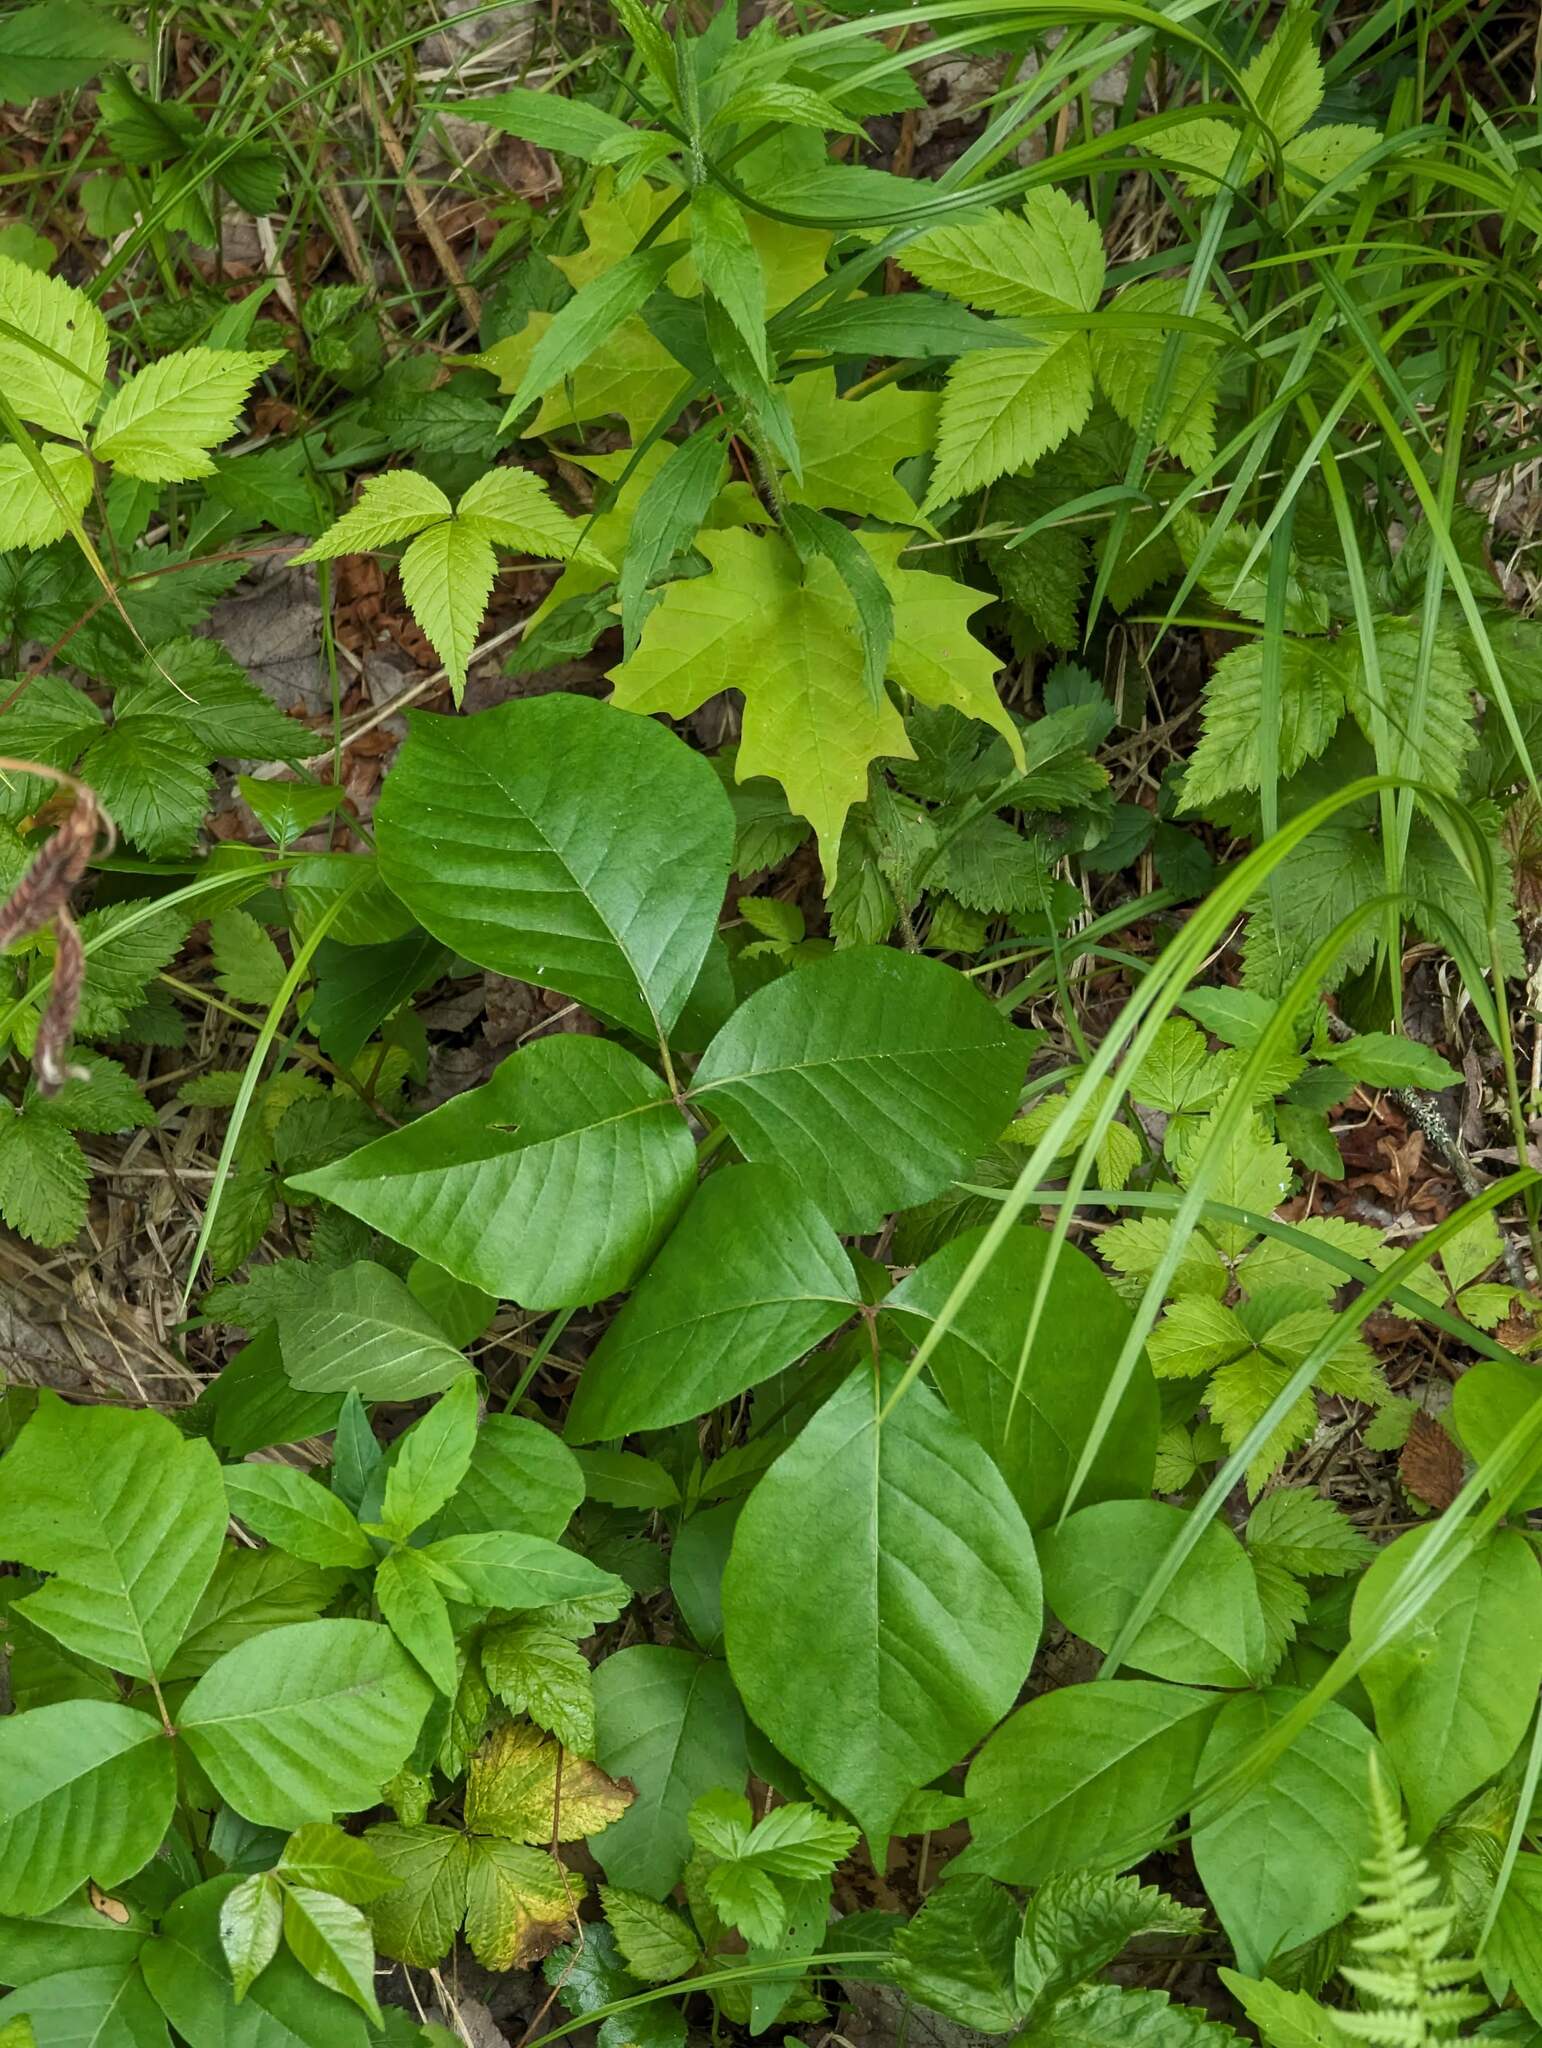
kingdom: Plantae
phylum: Tracheophyta
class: Magnoliopsida
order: Sapindales
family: Anacardiaceae
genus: Toxicodendron
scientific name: Toxicodendron radicans
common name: Poison ivy
